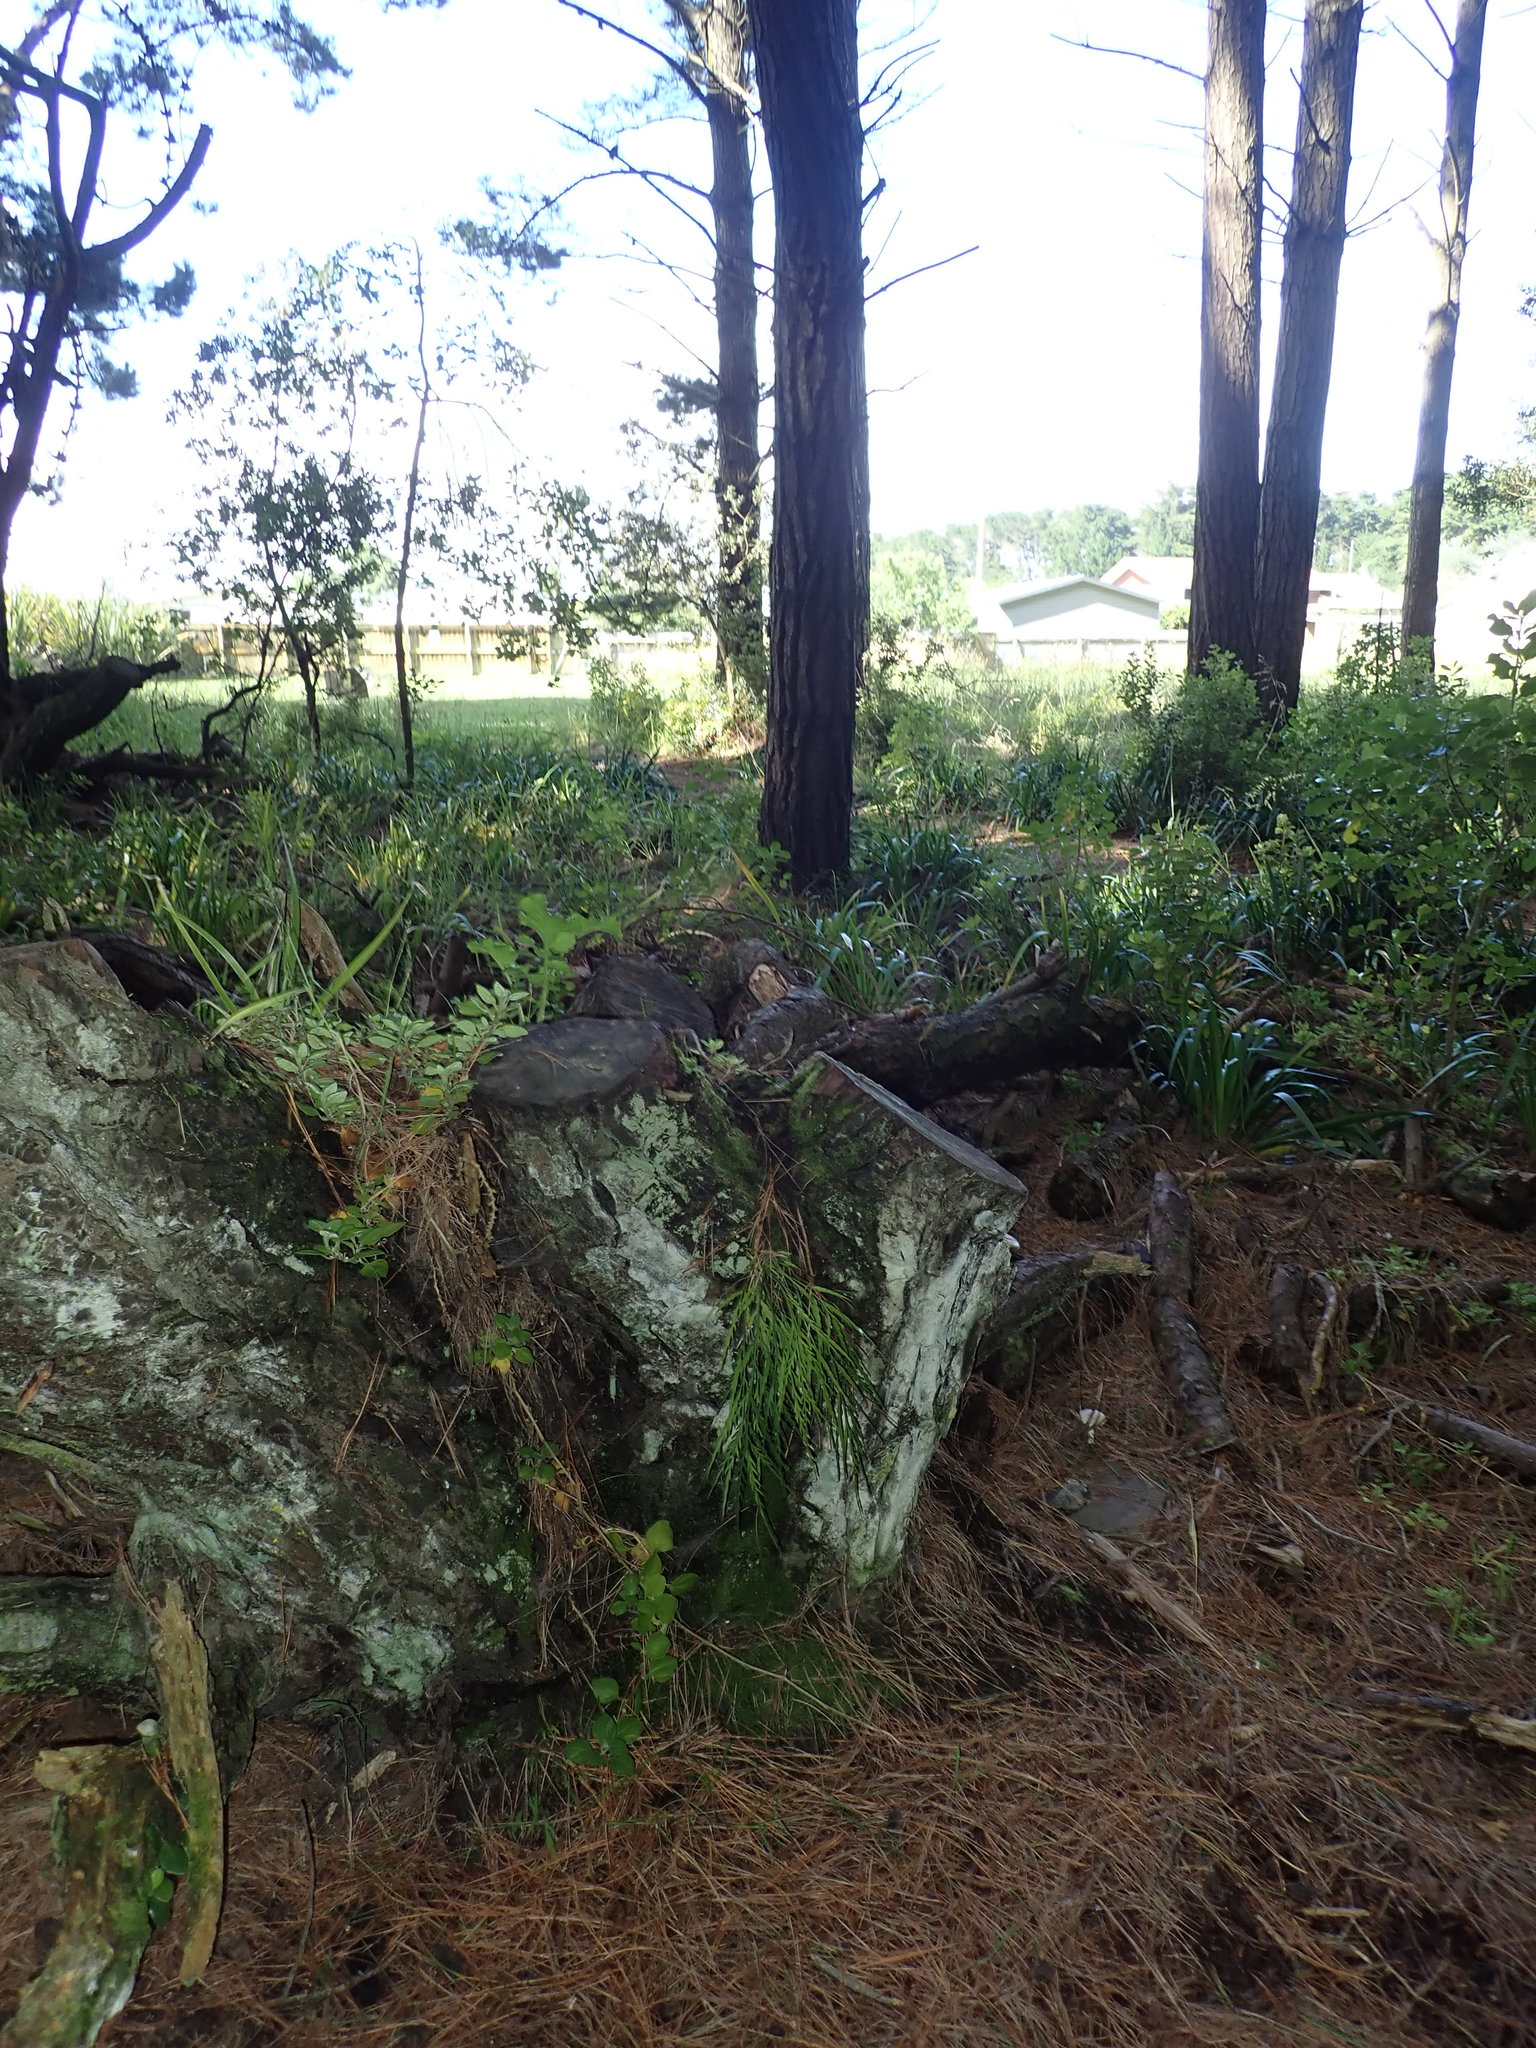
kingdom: Plantae
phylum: Tracheophyta
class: Polypodiopsida
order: Polypodiales
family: Aspleniaceae
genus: Asplenium
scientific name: Asplenium flaccidum
